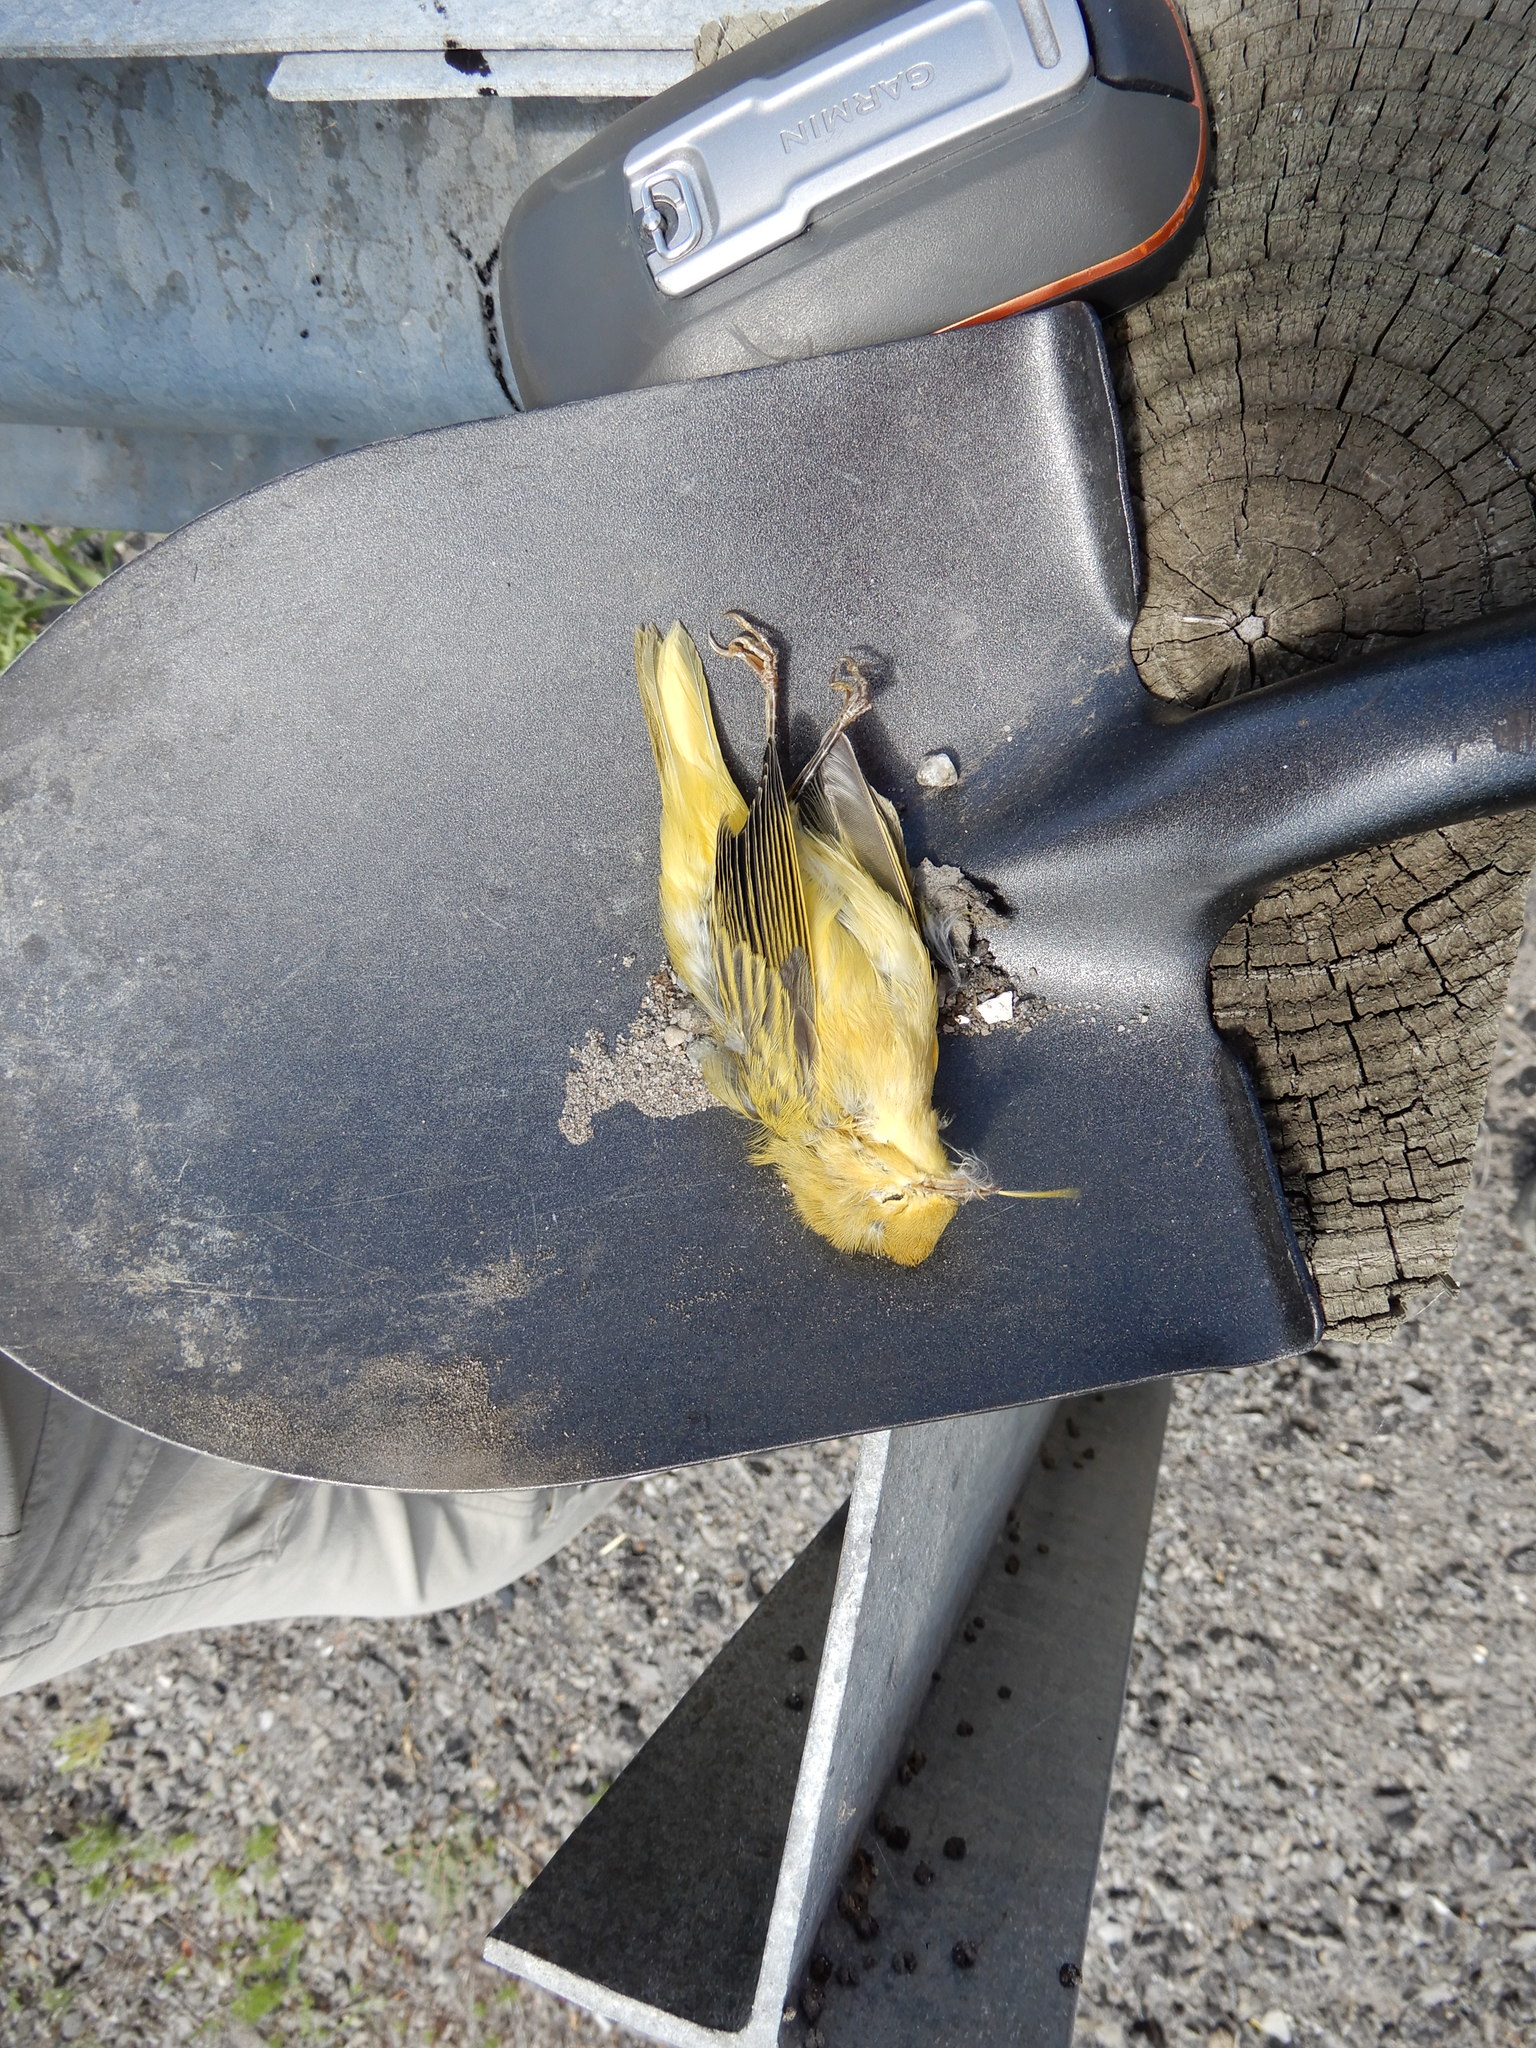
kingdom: Animalia
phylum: Chordata
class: Aves
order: Passeriformes
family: Parulidae
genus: Setophaga
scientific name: Setophaga petechia
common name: Yellow warbler
